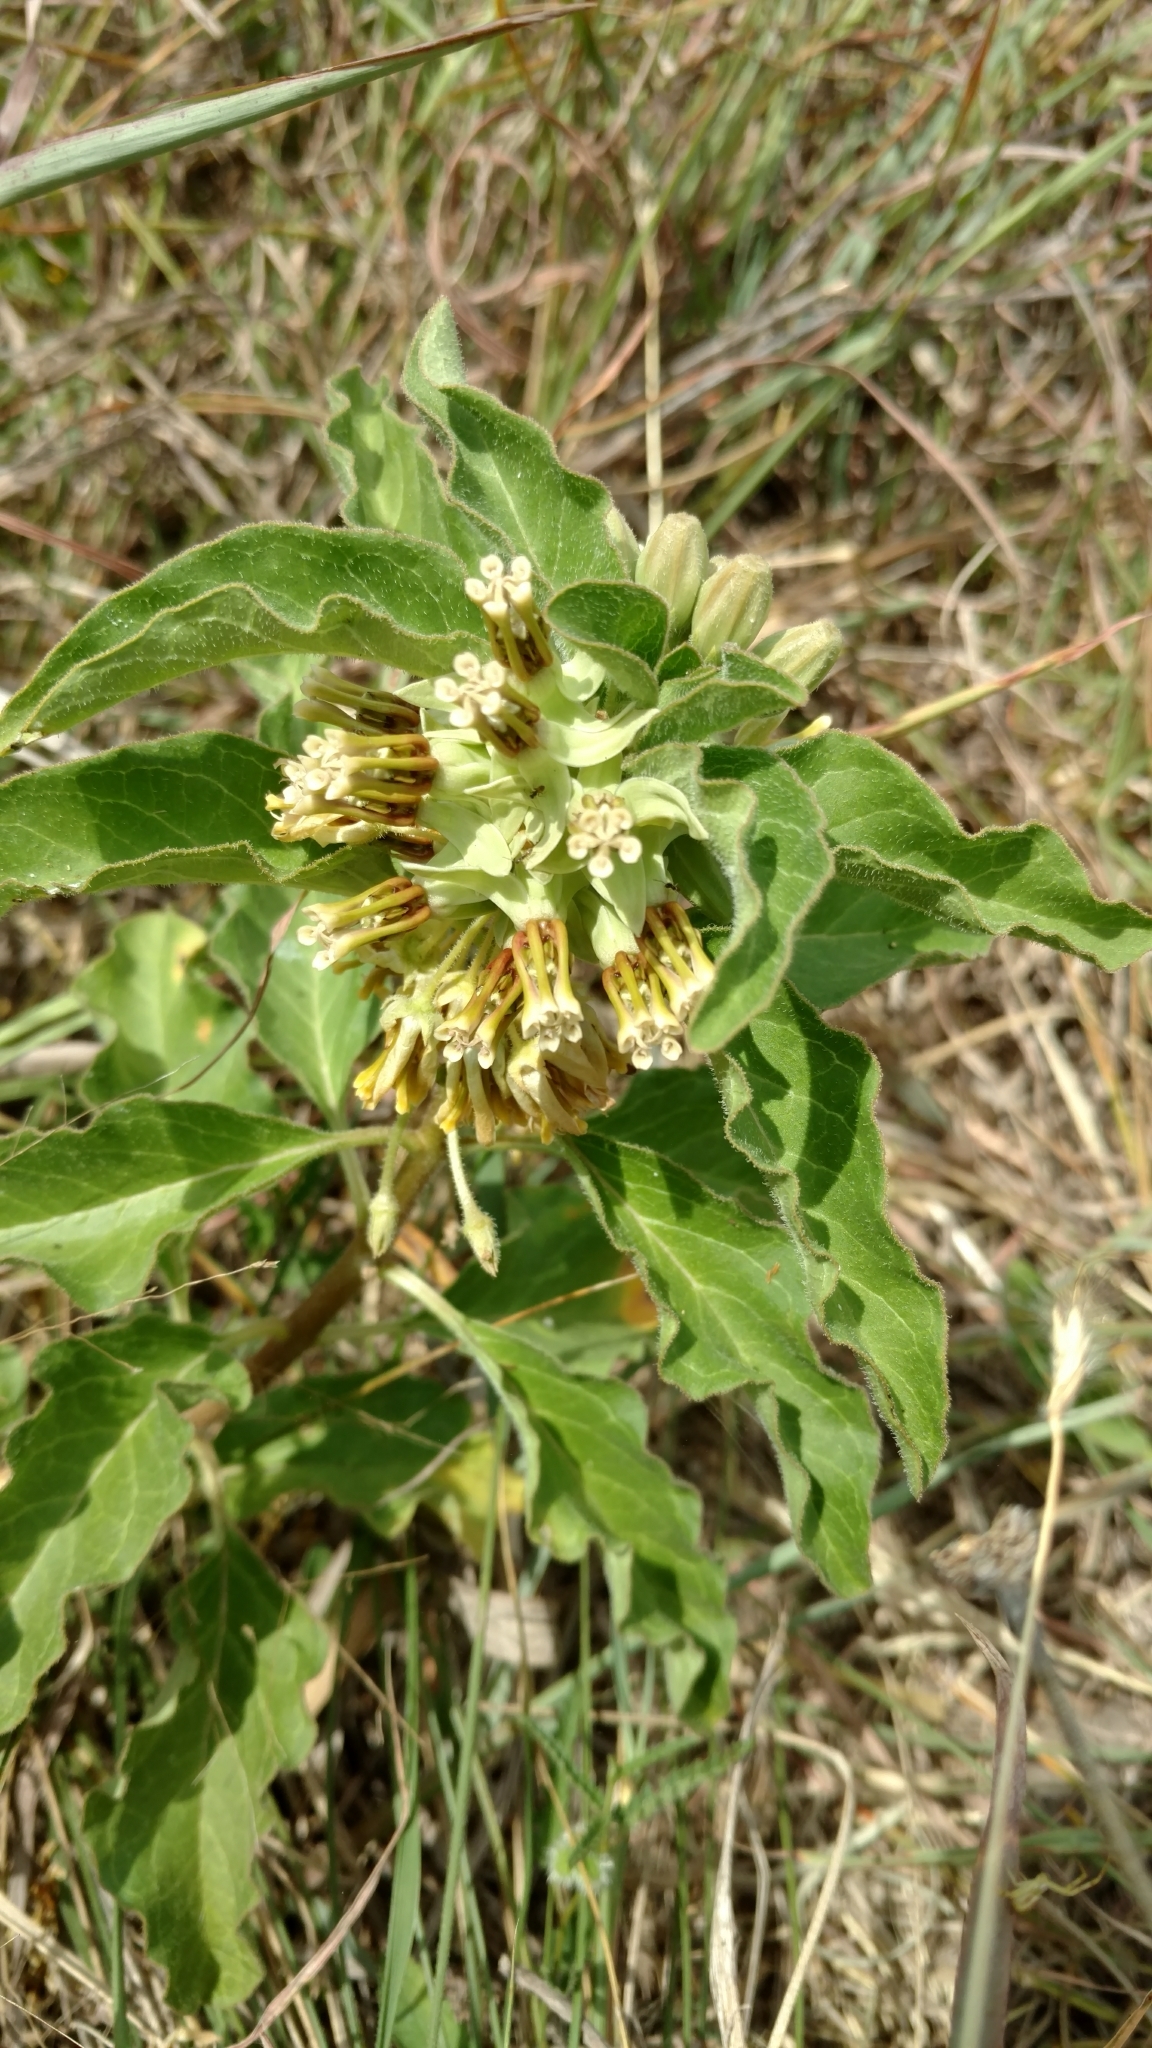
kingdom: Plantae
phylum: Tracheophyta
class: Magnoliopsida
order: Gentianales
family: Apocynaceae
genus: Asclepias
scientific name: Asclepias oenotheroides
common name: Zizotes milkweed
